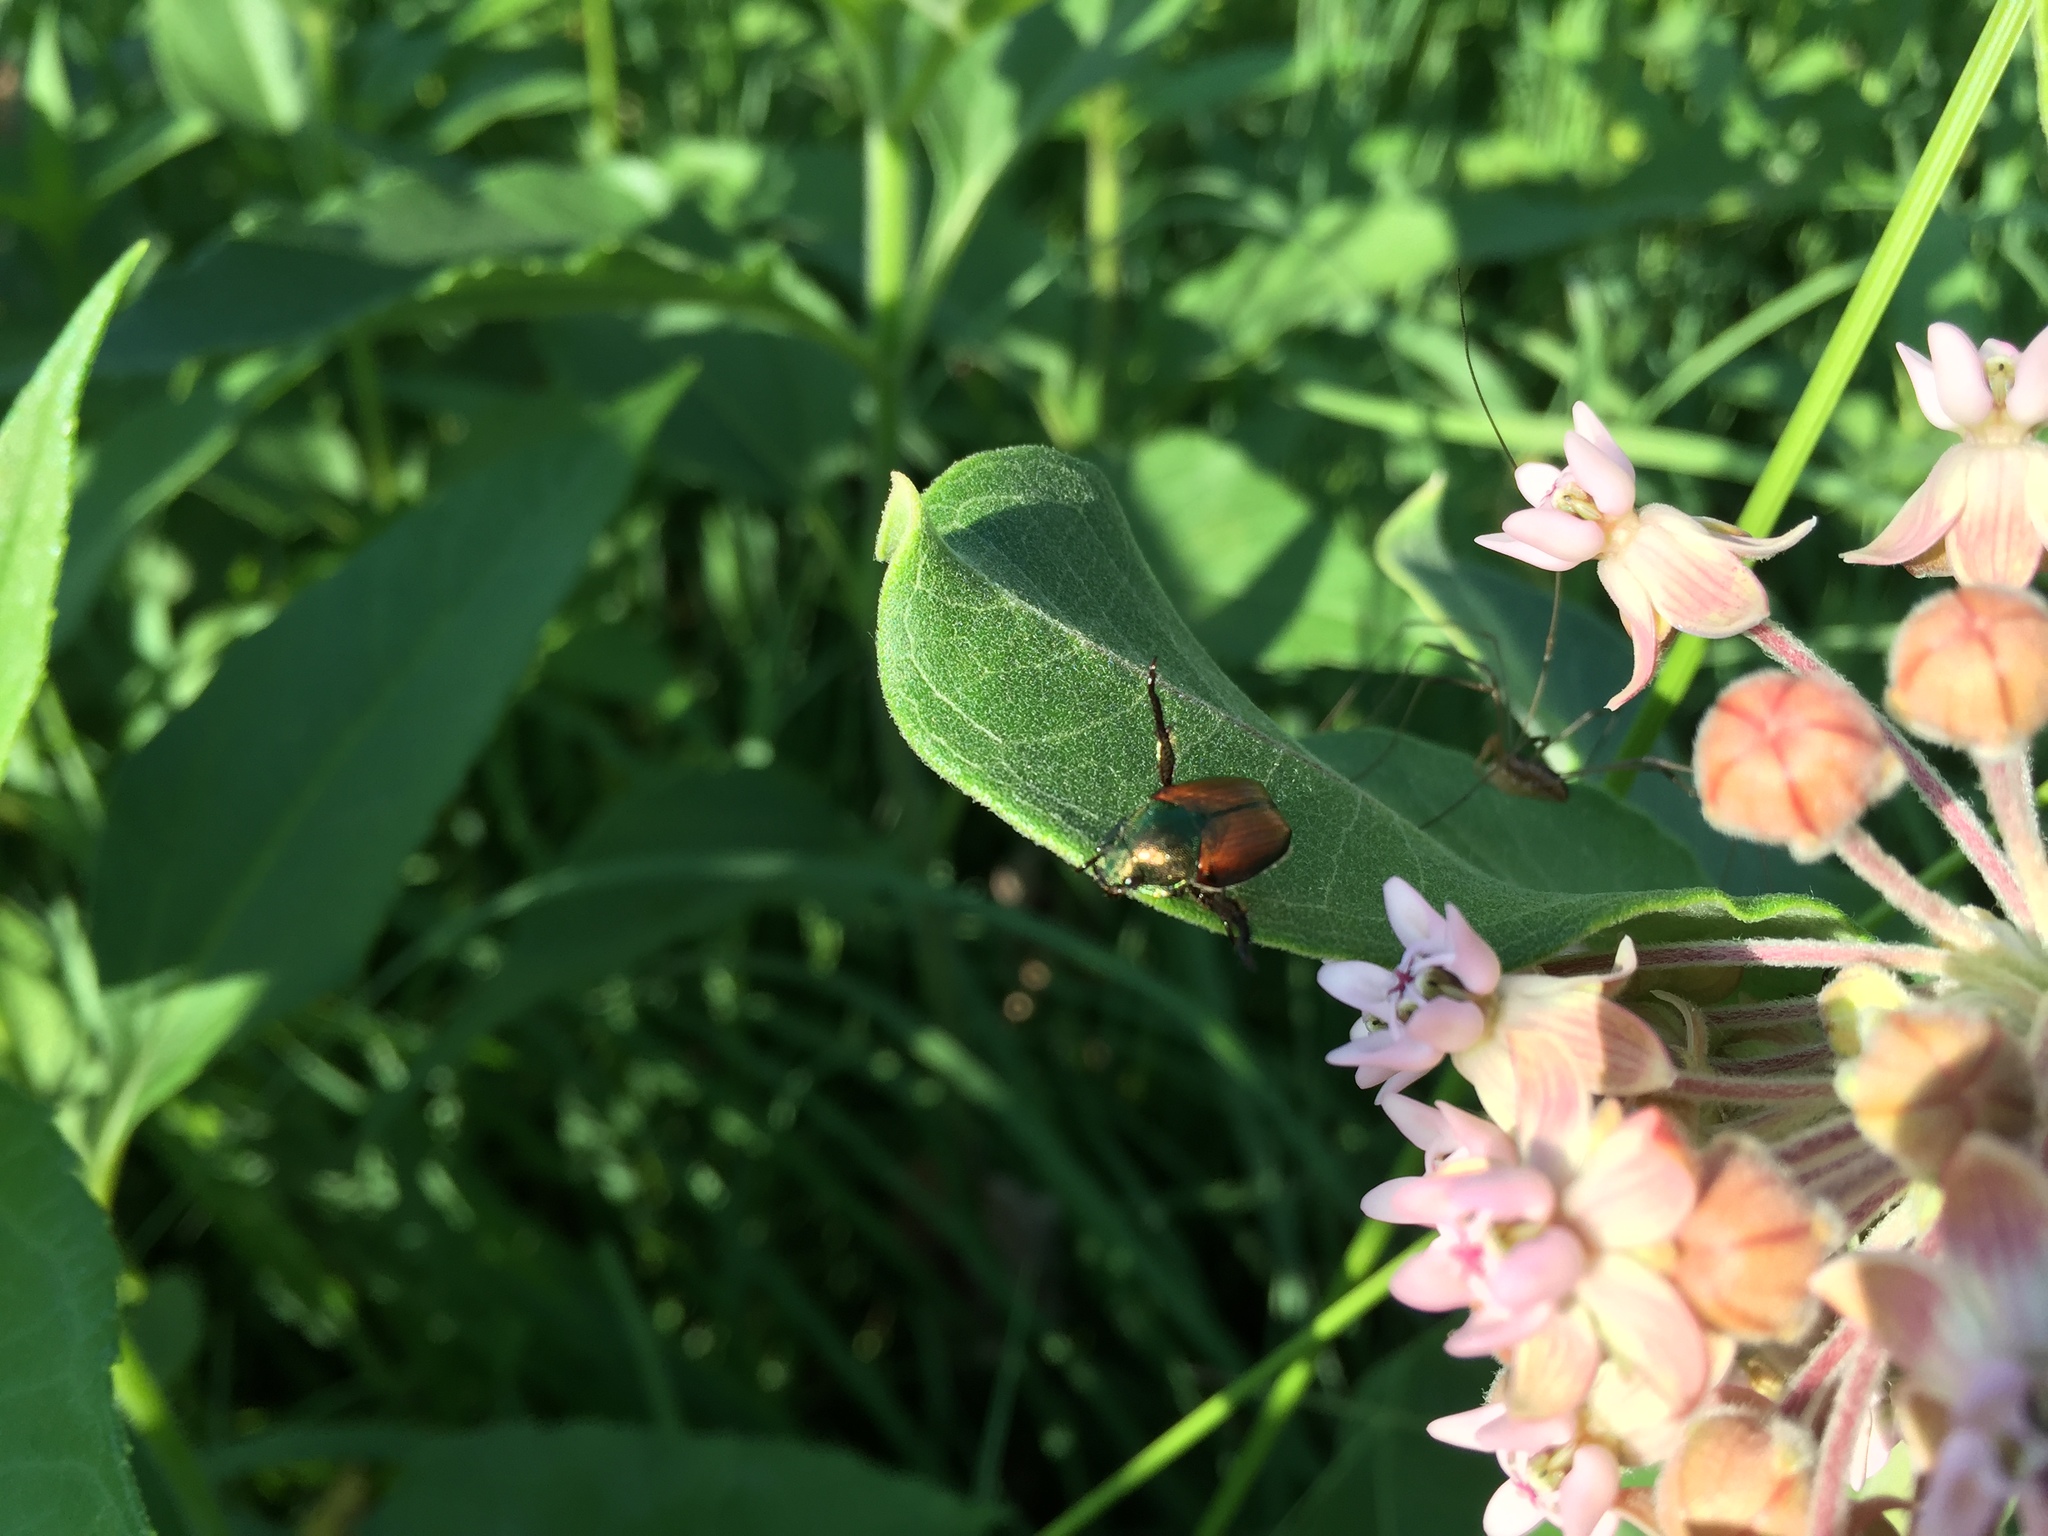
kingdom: Animalia
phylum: Arthropoda
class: Insecta
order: Coleoptera
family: Scarabaeidae
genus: Popillia
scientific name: Popillia japonica
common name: Japanese beetle
